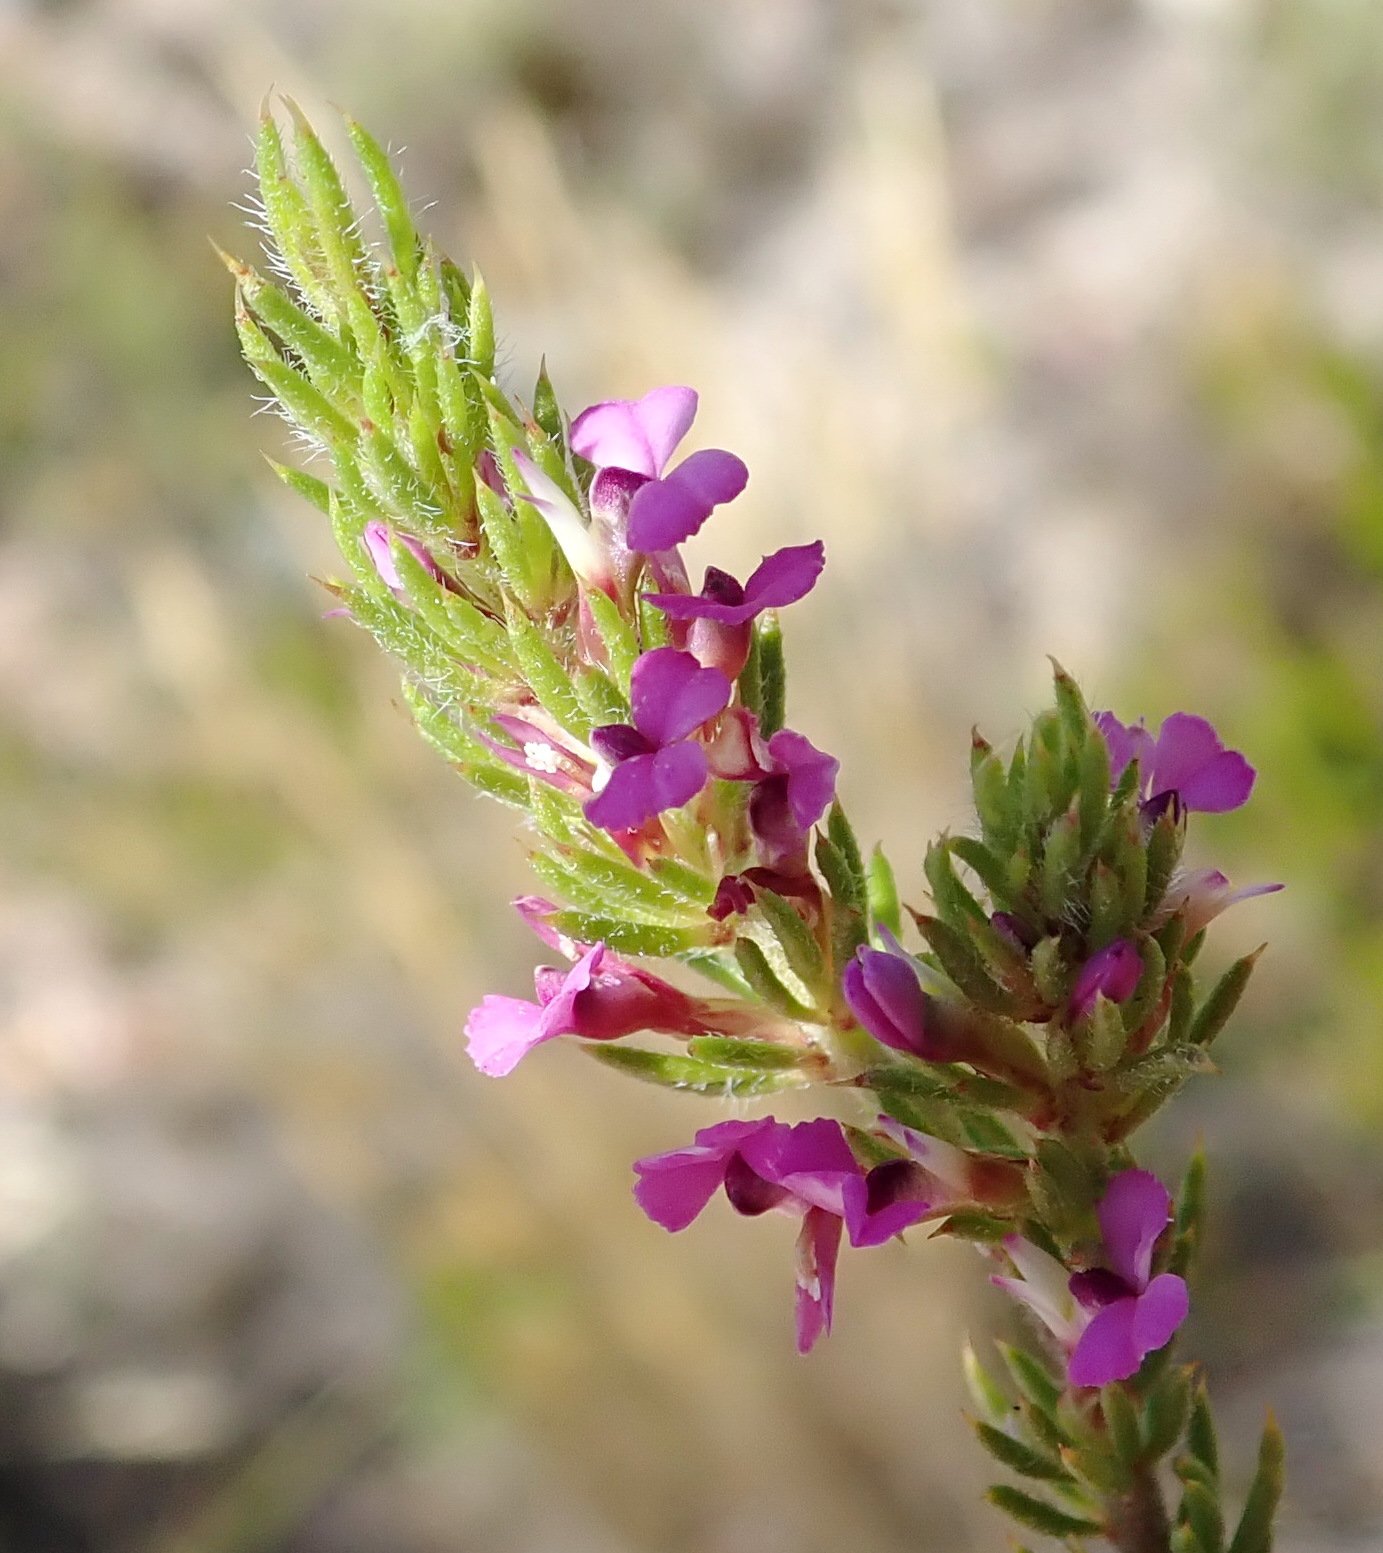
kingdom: Plantae
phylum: Tracheophyta
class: Magnoliopsida
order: Fabales
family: Polygalaceae
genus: Muraltia
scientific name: Muraltia alopecuroides
